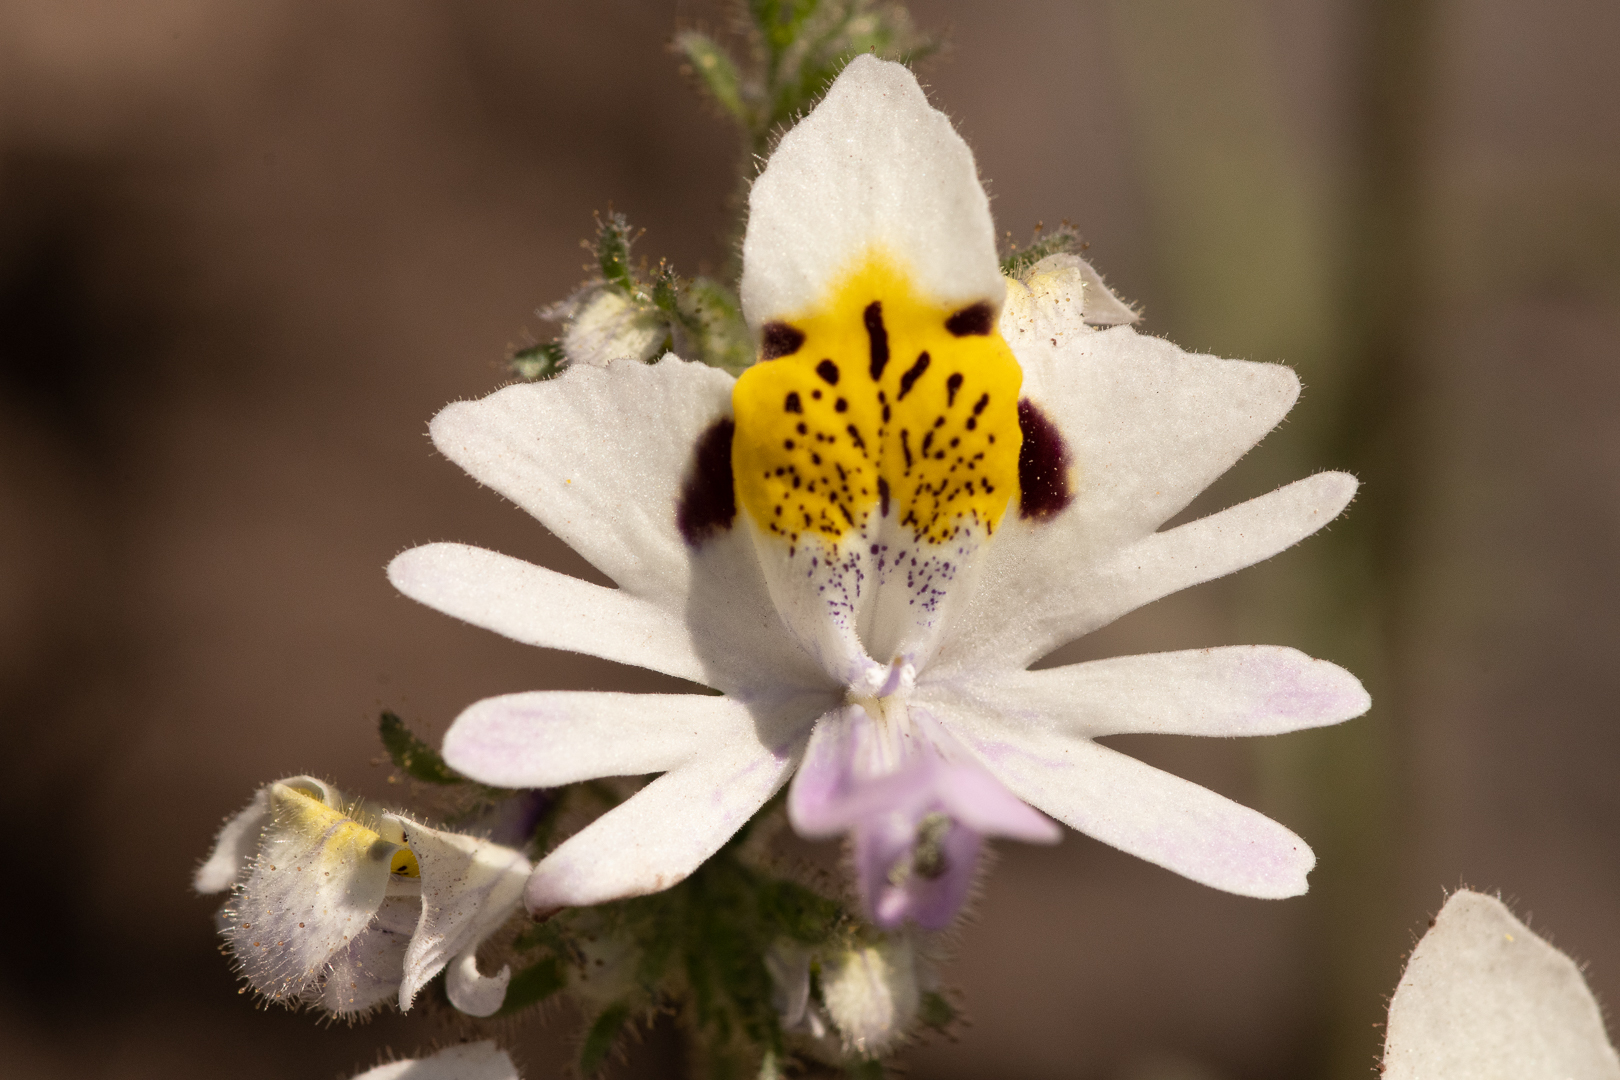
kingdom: Plantae
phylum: Tracheophyta
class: Magnoliopsida
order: Solanales
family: Solanaceae
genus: Schizanthus
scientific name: Schizanthus pinnatus
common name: Poor-man's-orchid
